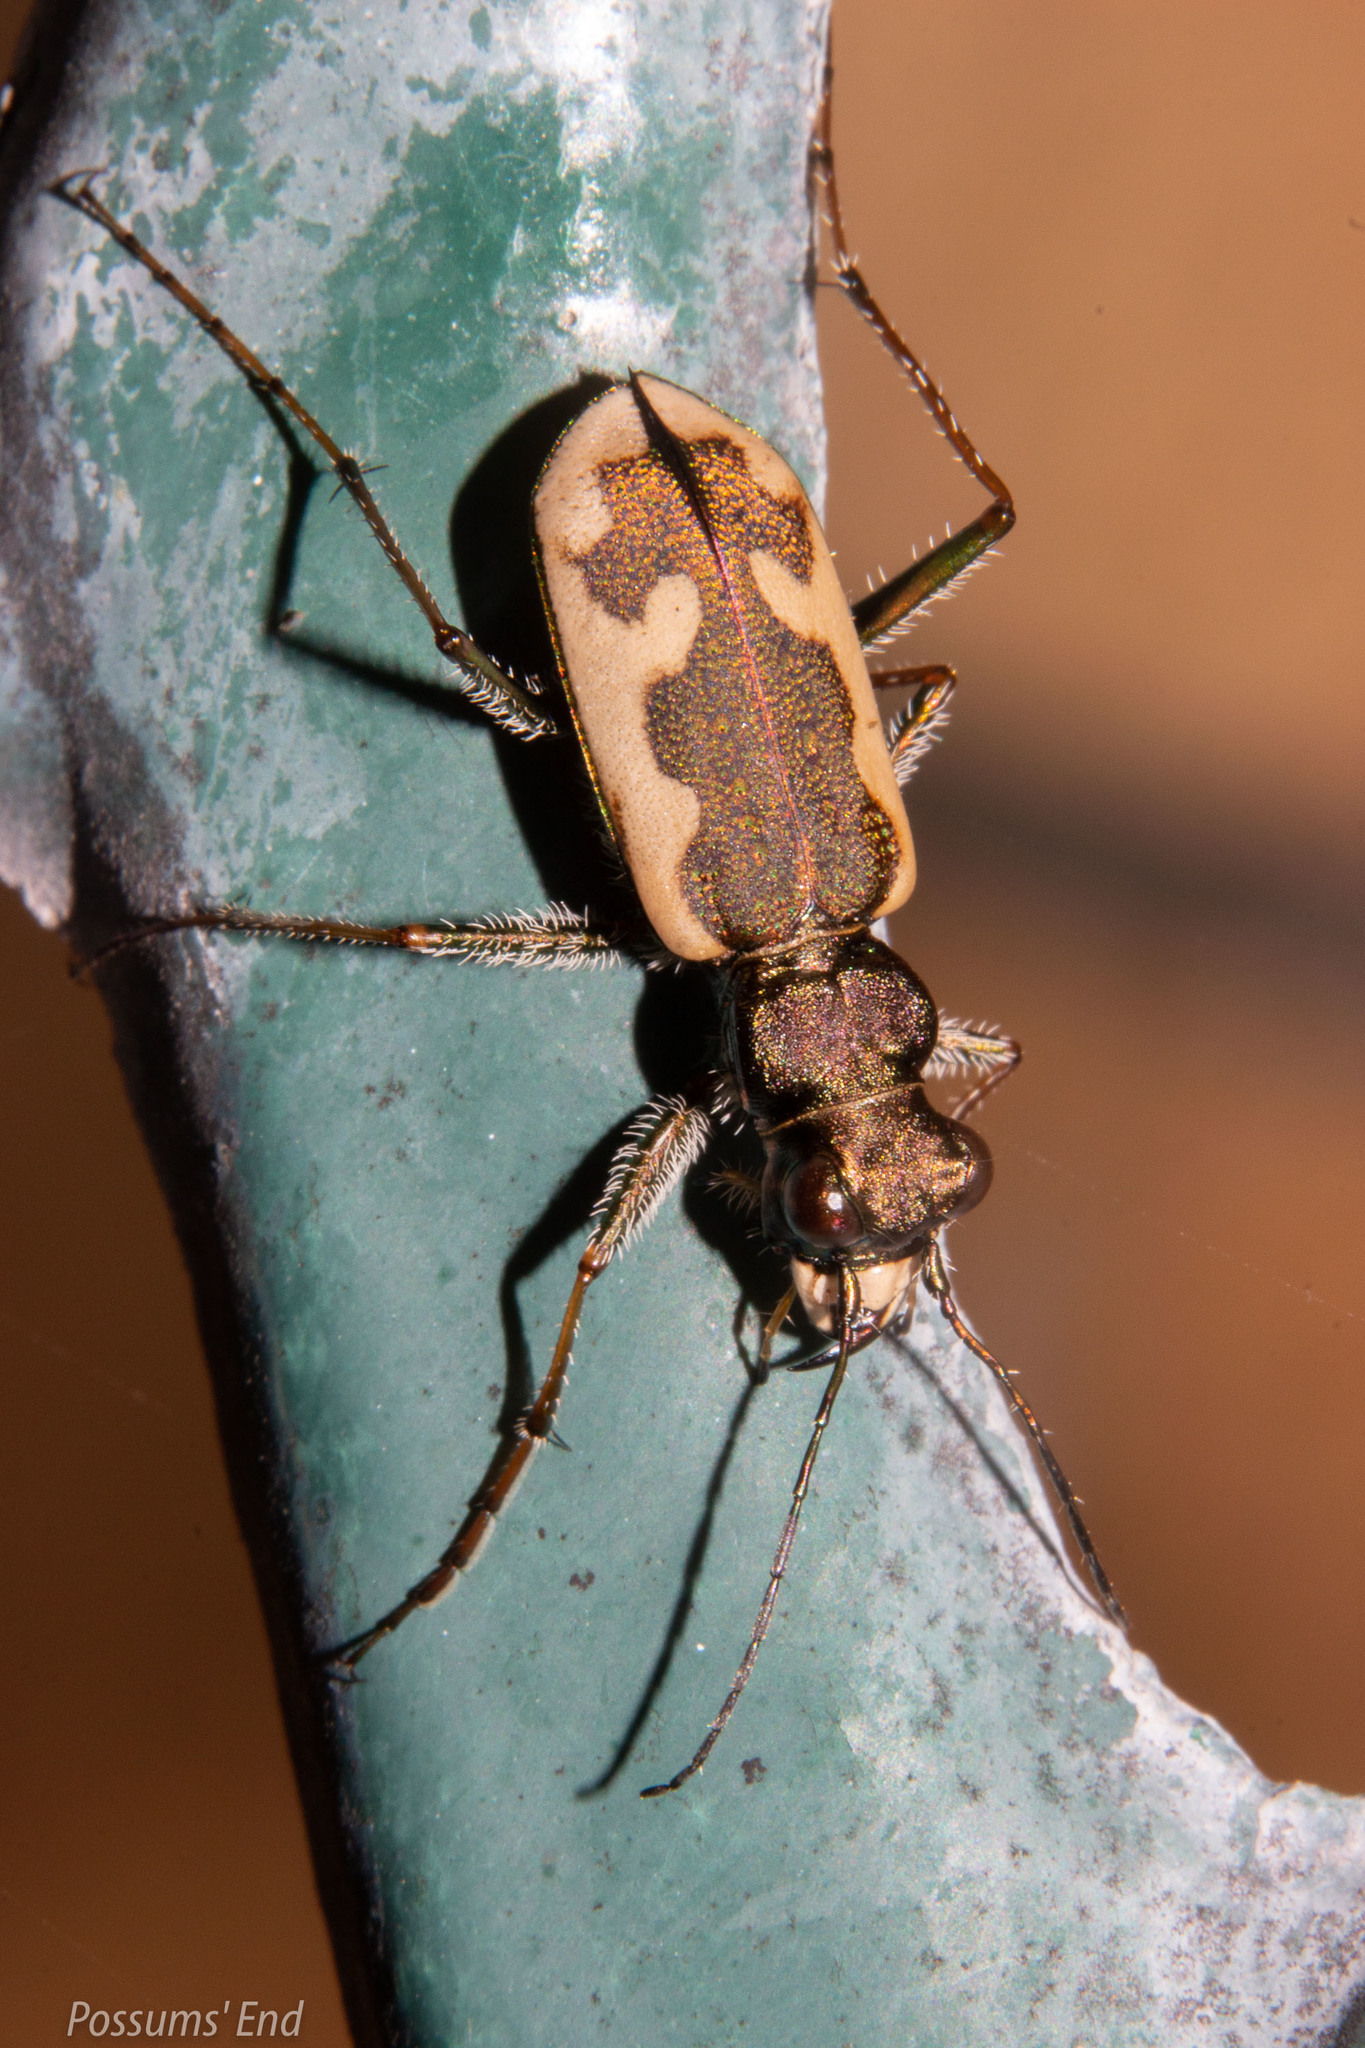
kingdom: Animalia
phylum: Arthropoda
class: Insecta
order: Coleoptera
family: Carabidae
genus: Neocicindela
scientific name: Neocicindela latecincta
